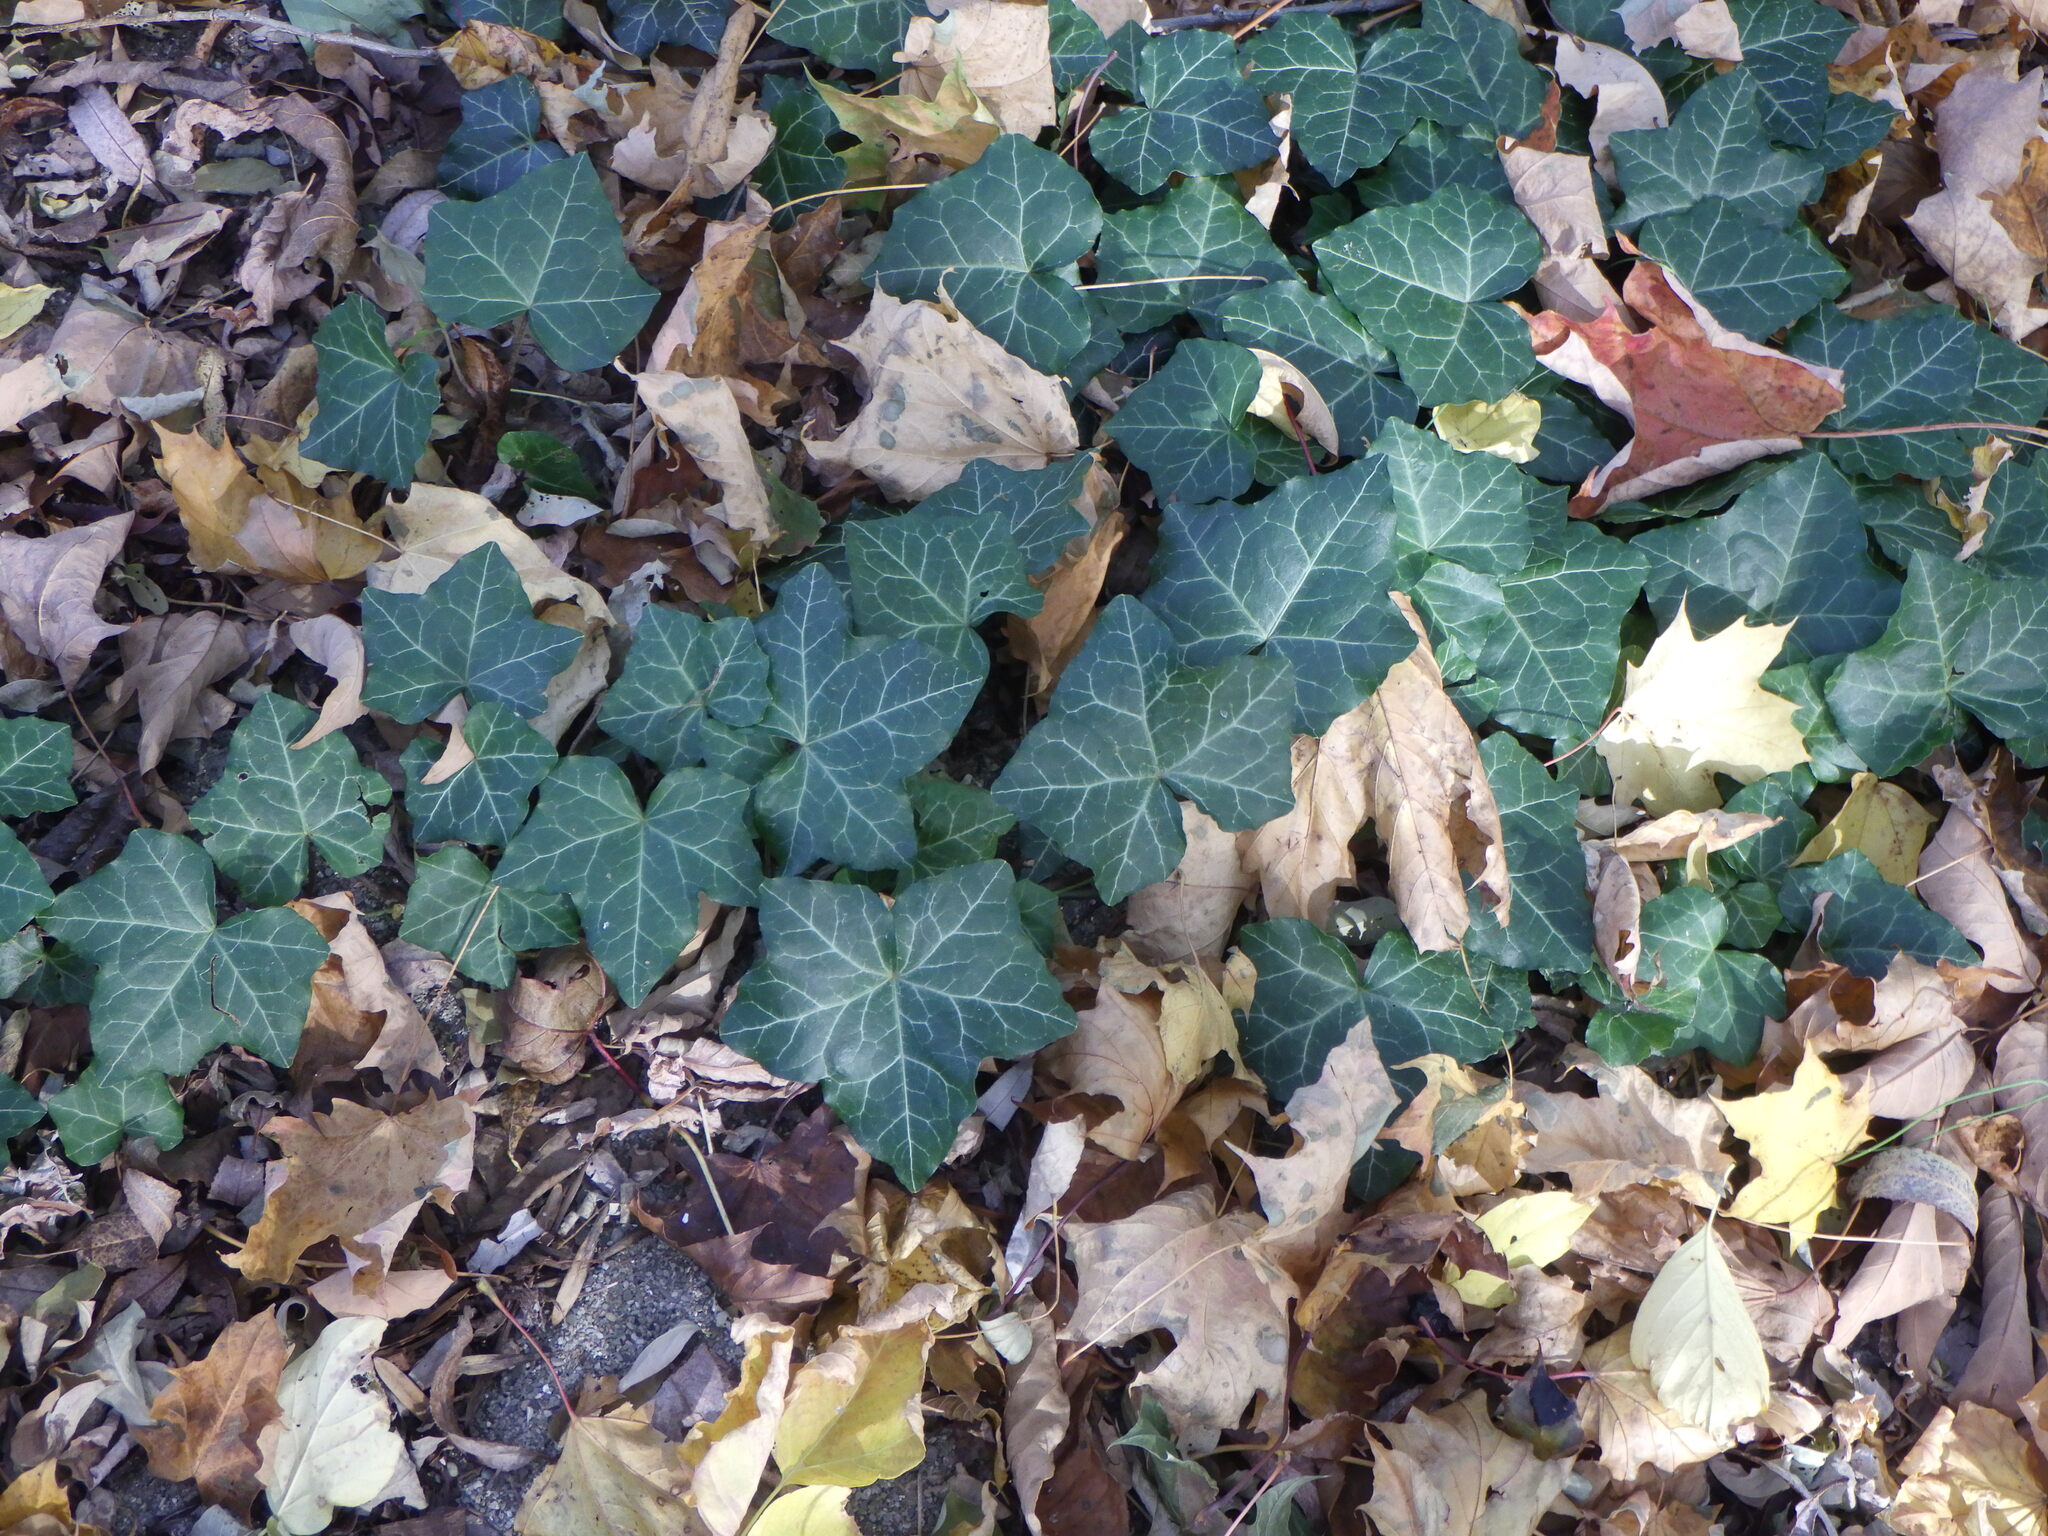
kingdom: Plantae
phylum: Tracheophyta
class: Magnoliopsida
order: Apiales
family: Araliaceae
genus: Hedera
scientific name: Hedera helix
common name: Ivy
